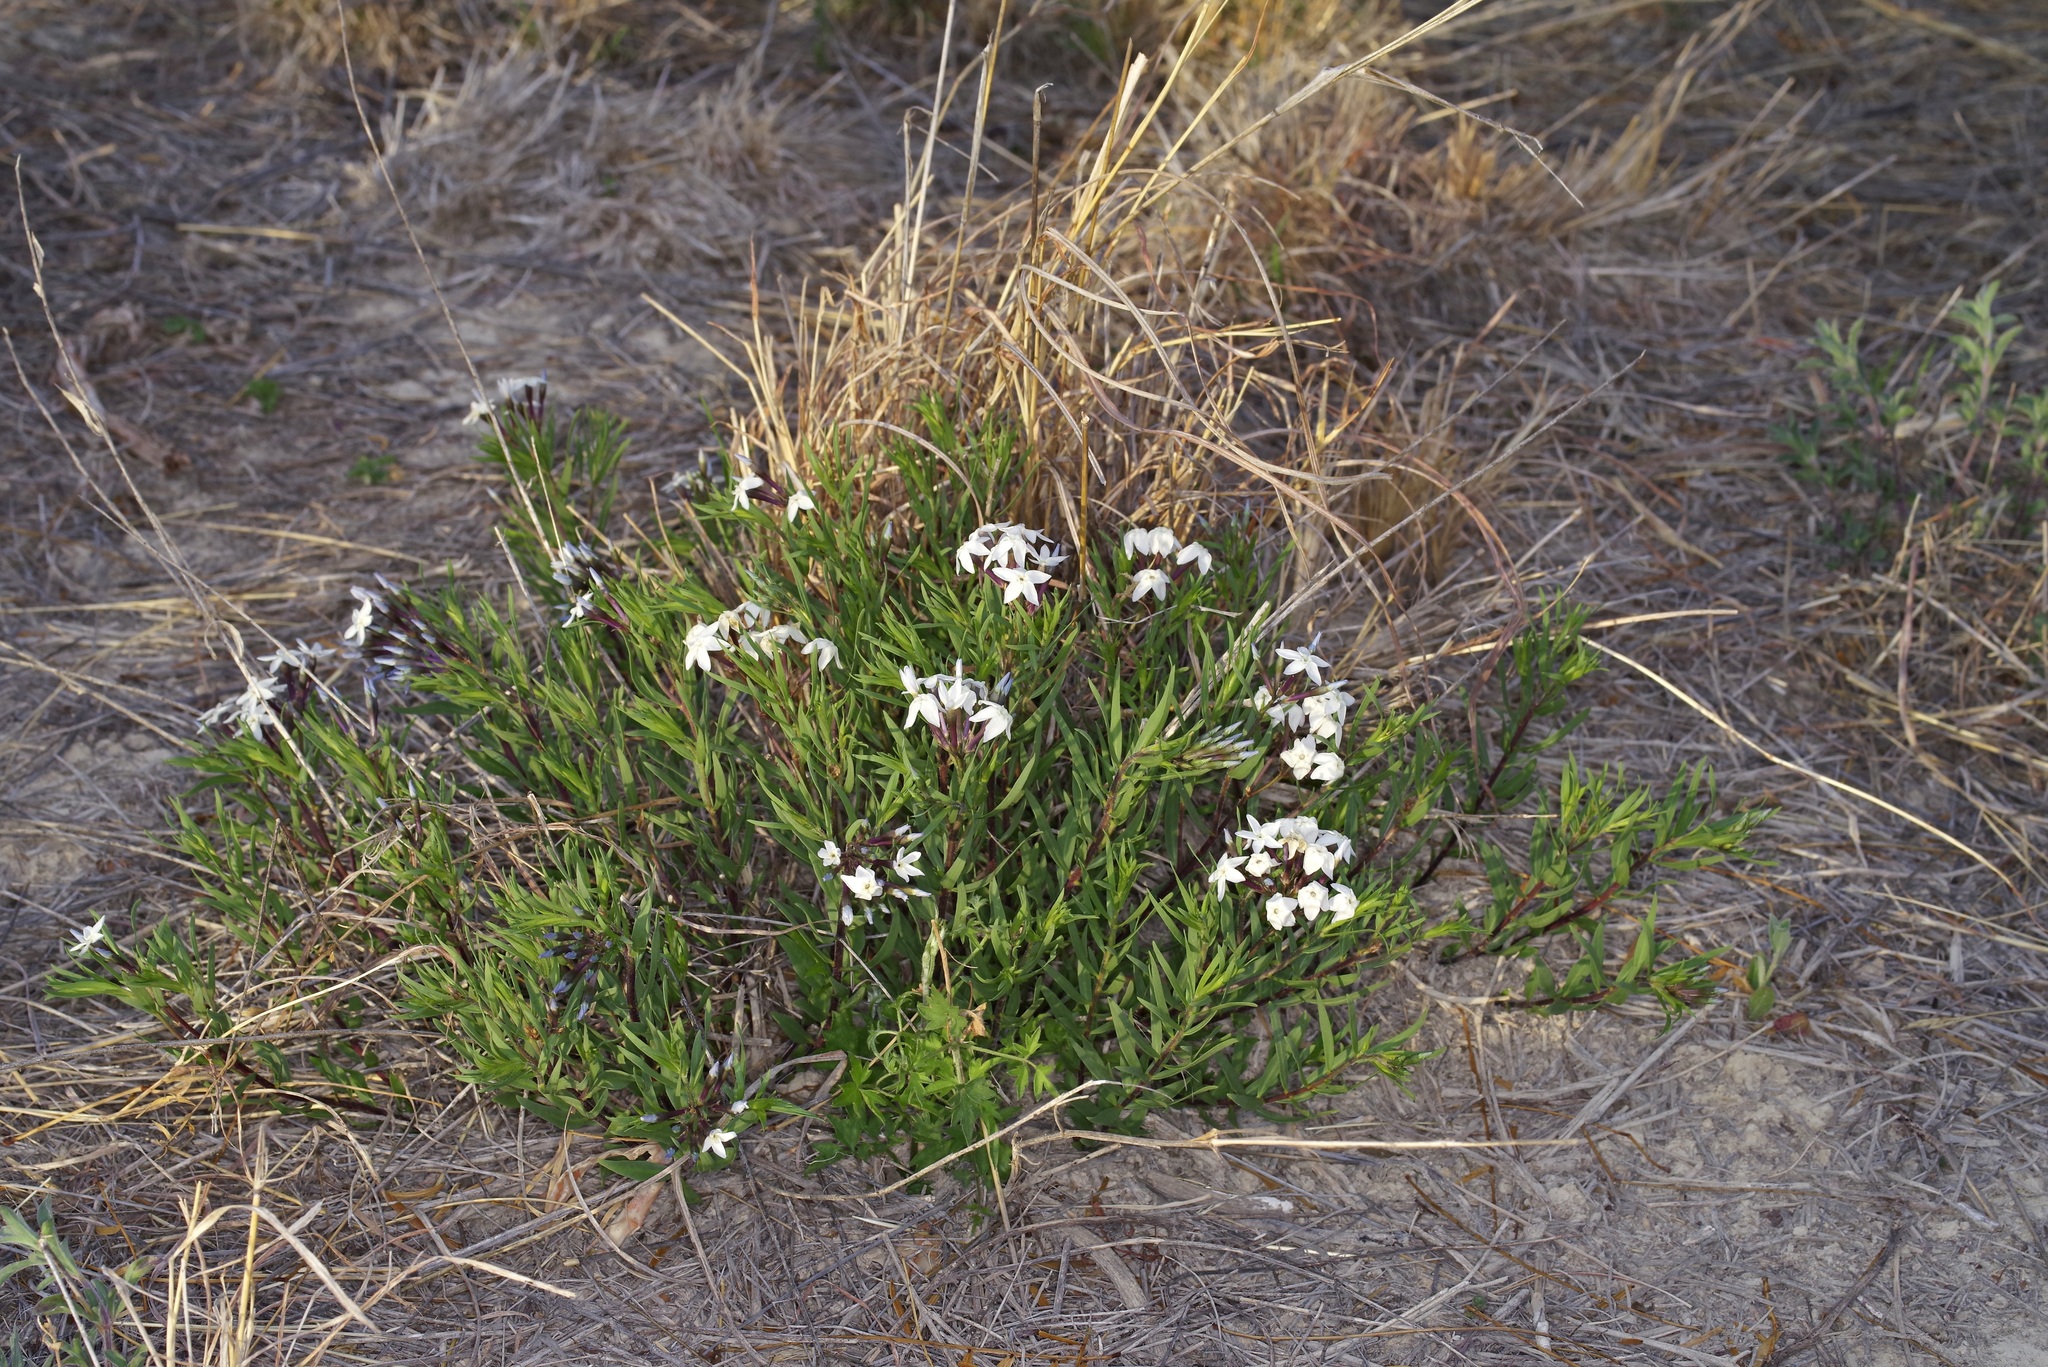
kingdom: Plantae
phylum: Tracheophyta
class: Magnoliopsida
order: Gentianales
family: Apocynaceae
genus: Amsonia
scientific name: Amsonia tharpii
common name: Feltleaf bluestar
